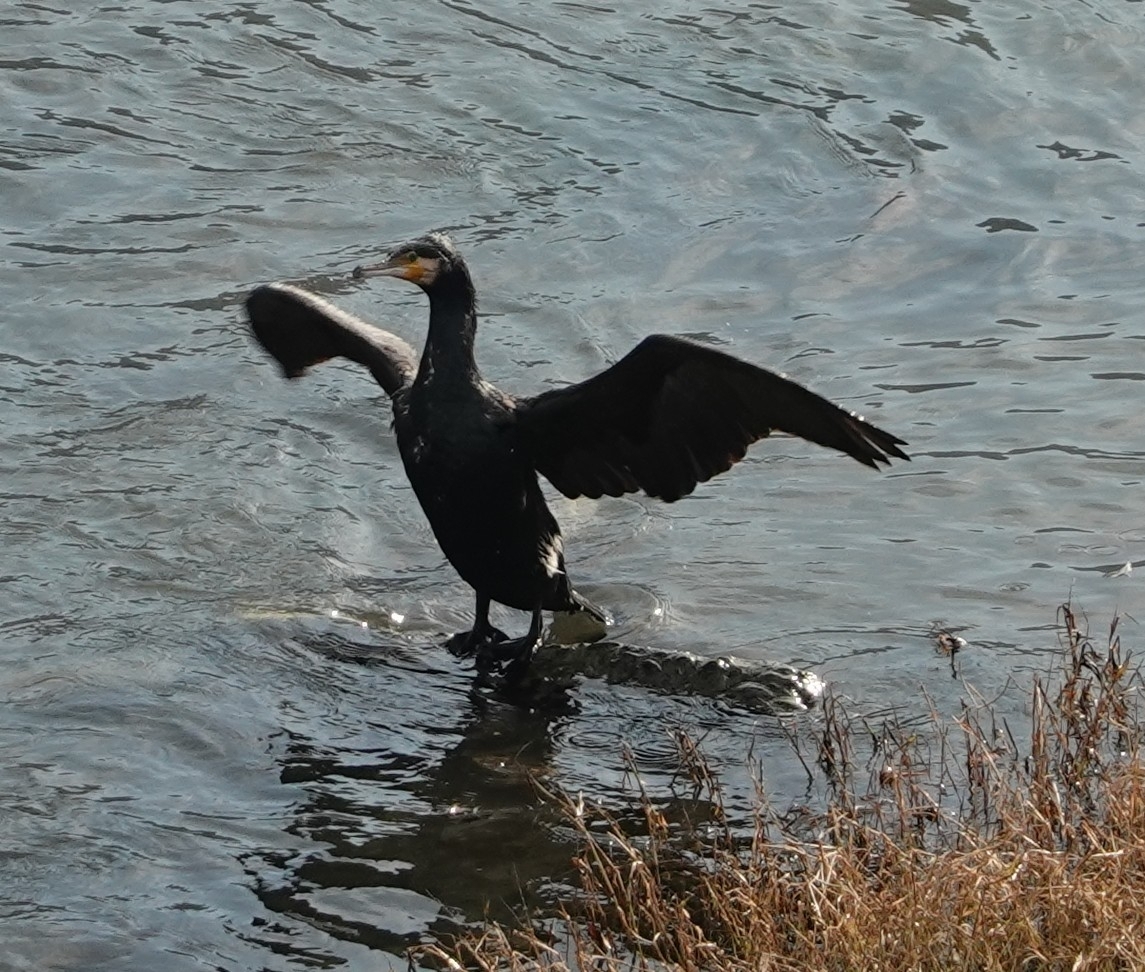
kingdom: Animalia
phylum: Chordata
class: Aves
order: Suliformes
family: Phalacrocoracidae
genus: Phalacrocorax
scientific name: Phalacrocorax carbo
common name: Great cormorant
